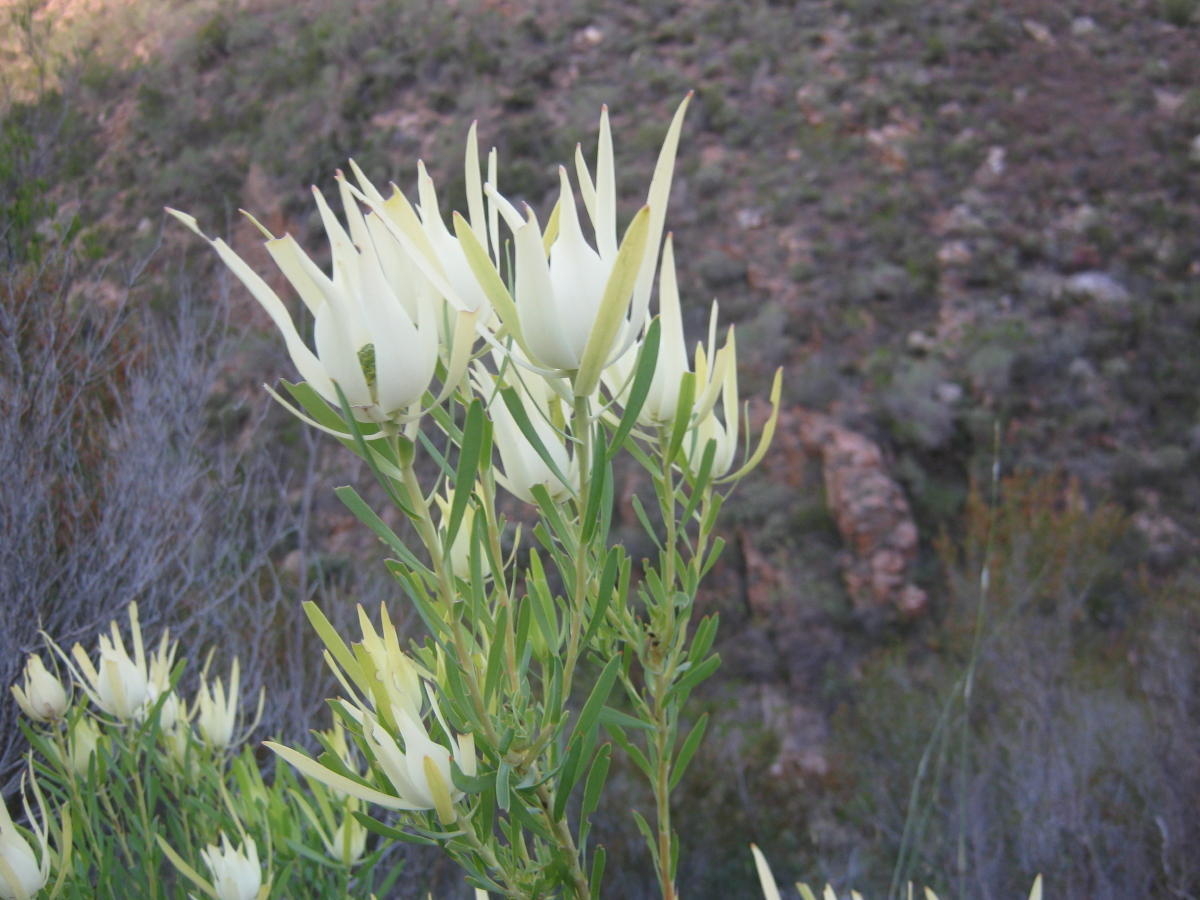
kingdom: Plantae
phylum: Tracheophyta
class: Magnoliopsida
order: Proteales
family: Proteaceae
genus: Leucadendron
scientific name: Leucadendron salignum
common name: Common sunshine conebush
